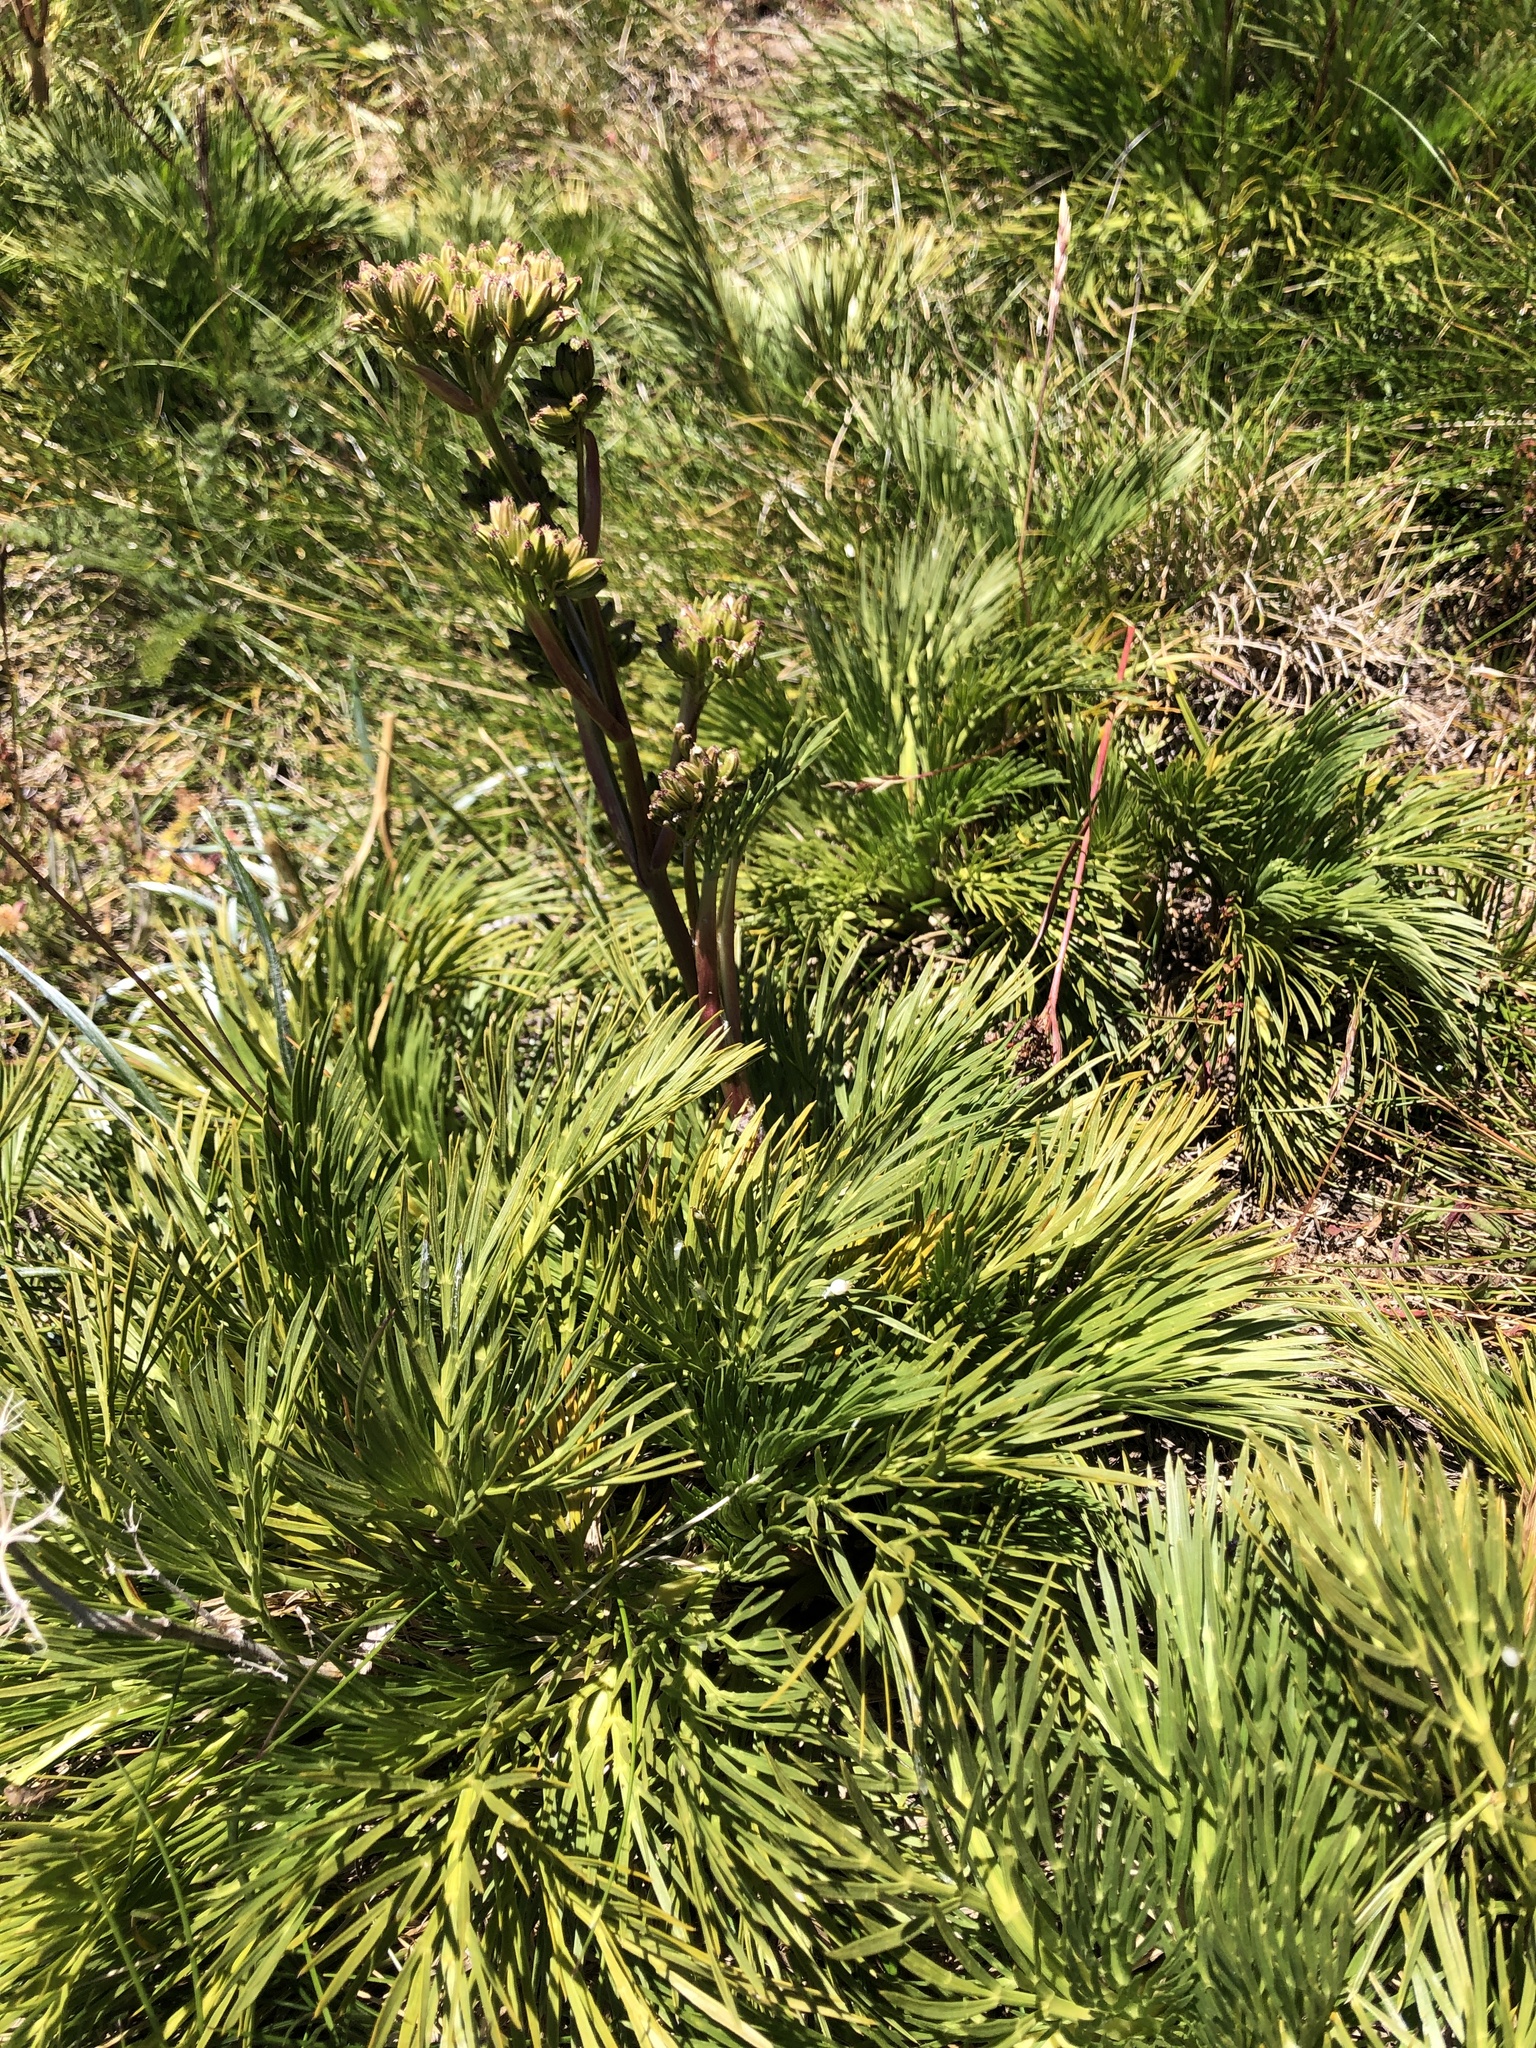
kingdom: Plantae
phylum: Tracheophyta
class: Magnoliopsida
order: Apiales
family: Apiaceae
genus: Aciphylla
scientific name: Aciphylla glacialis
